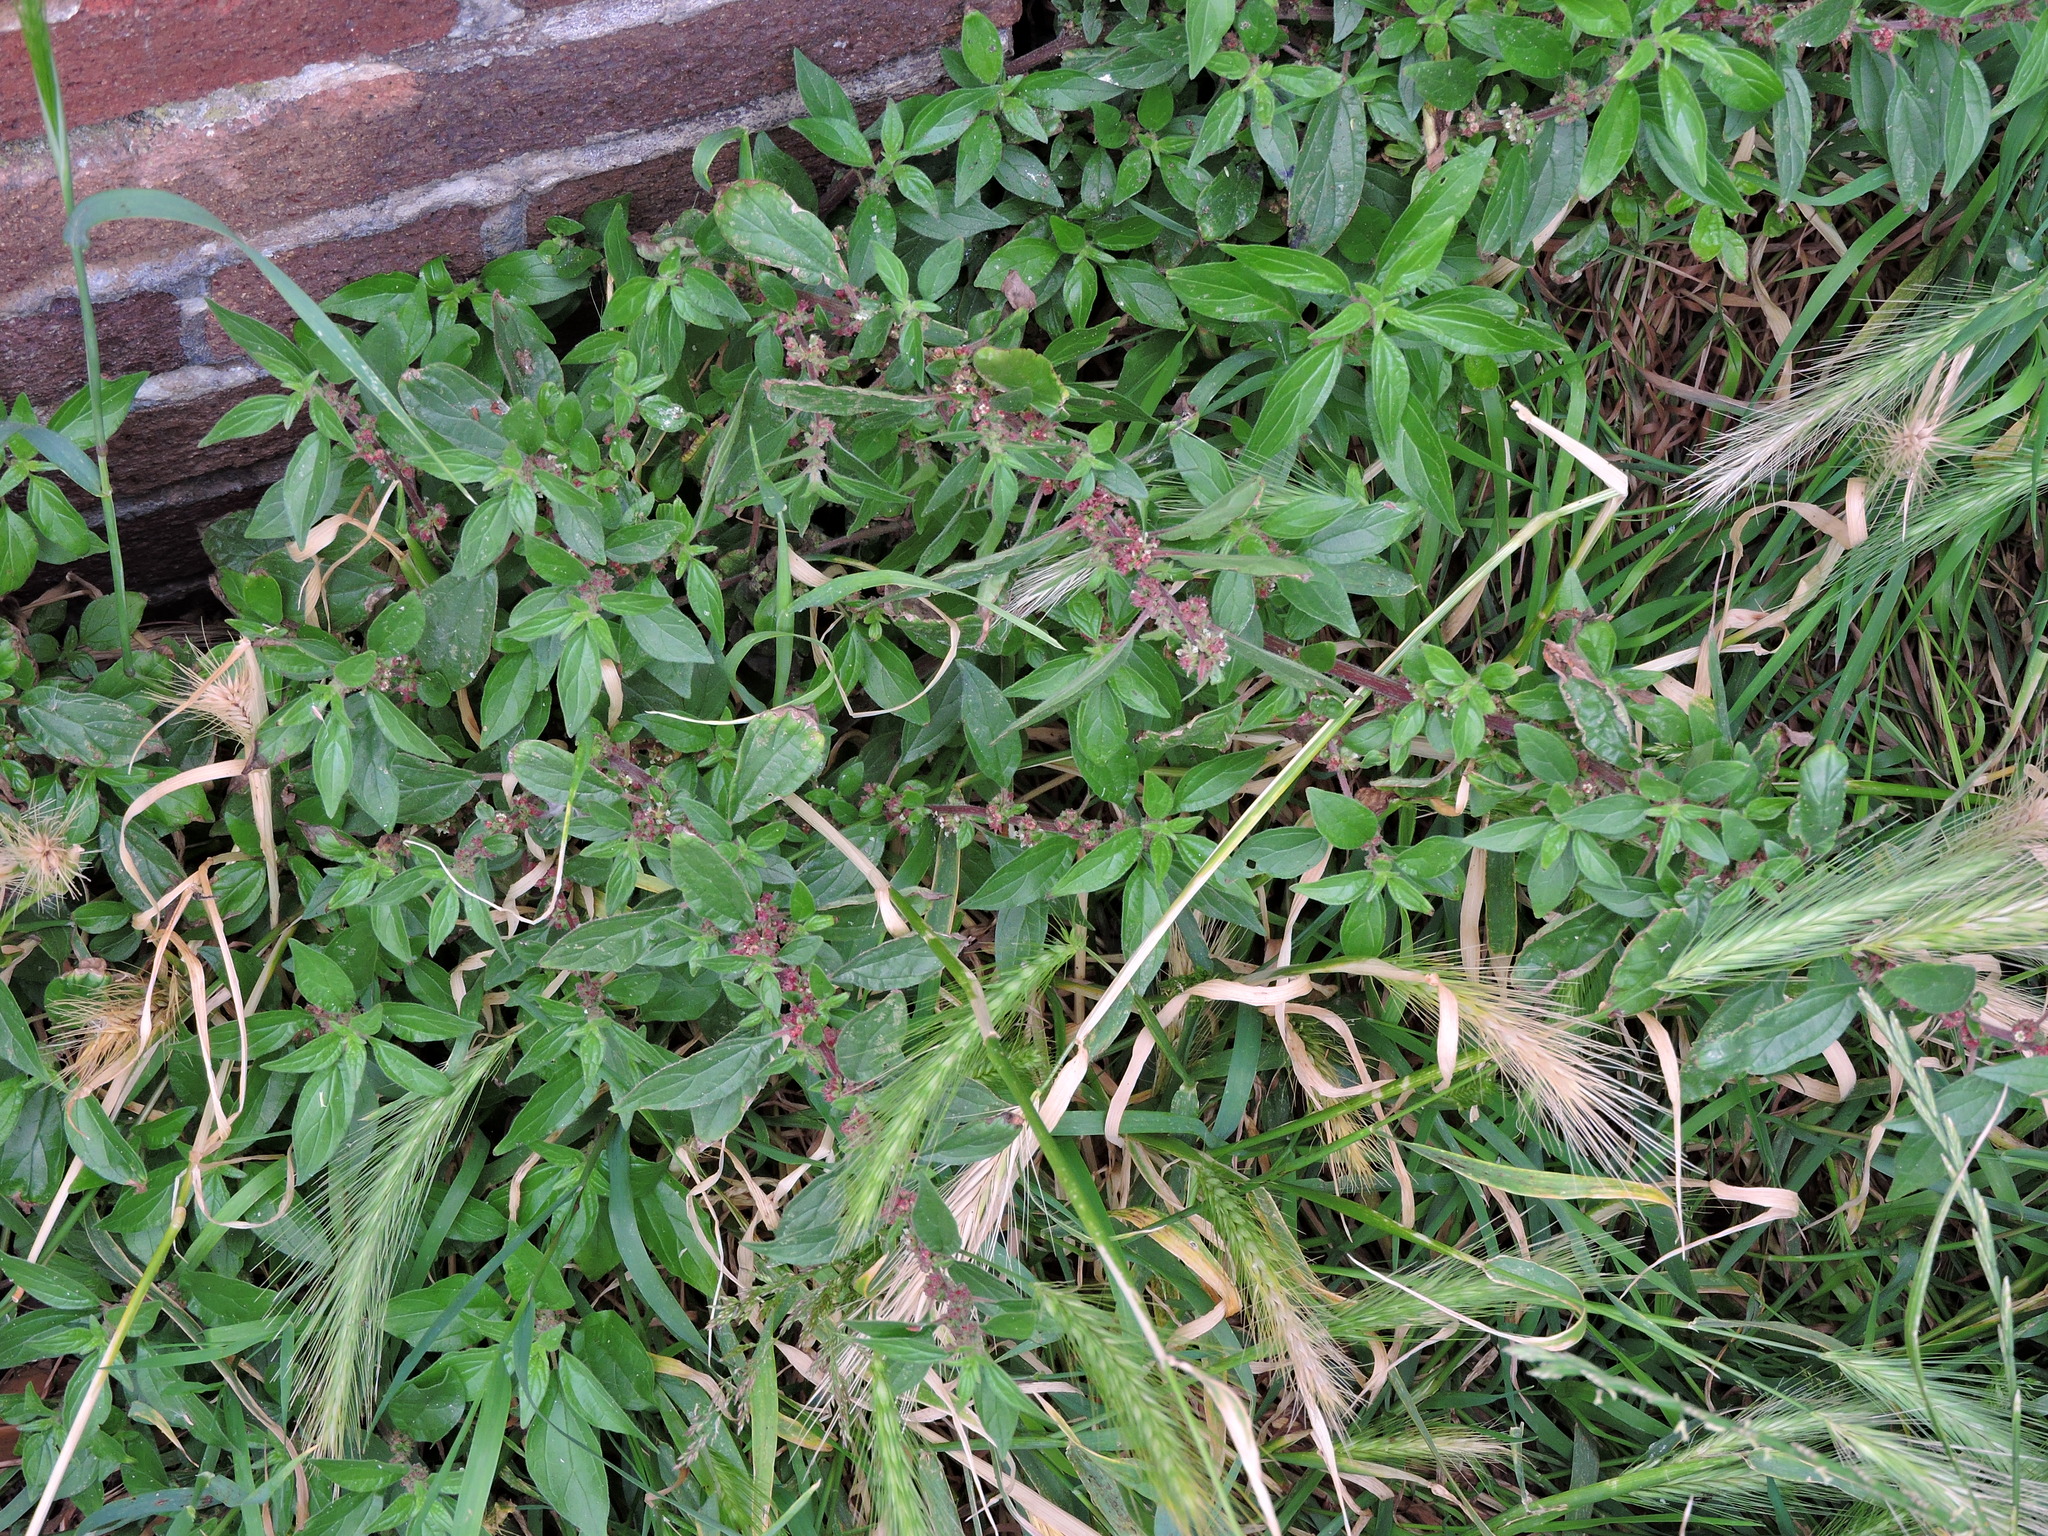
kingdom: Plantae
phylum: Tracheophyta
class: Magnoliopsida
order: Rosales
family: Urticaceae
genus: Parietaria
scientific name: Parietaria judaica
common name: Pellitory-of-the-wall
